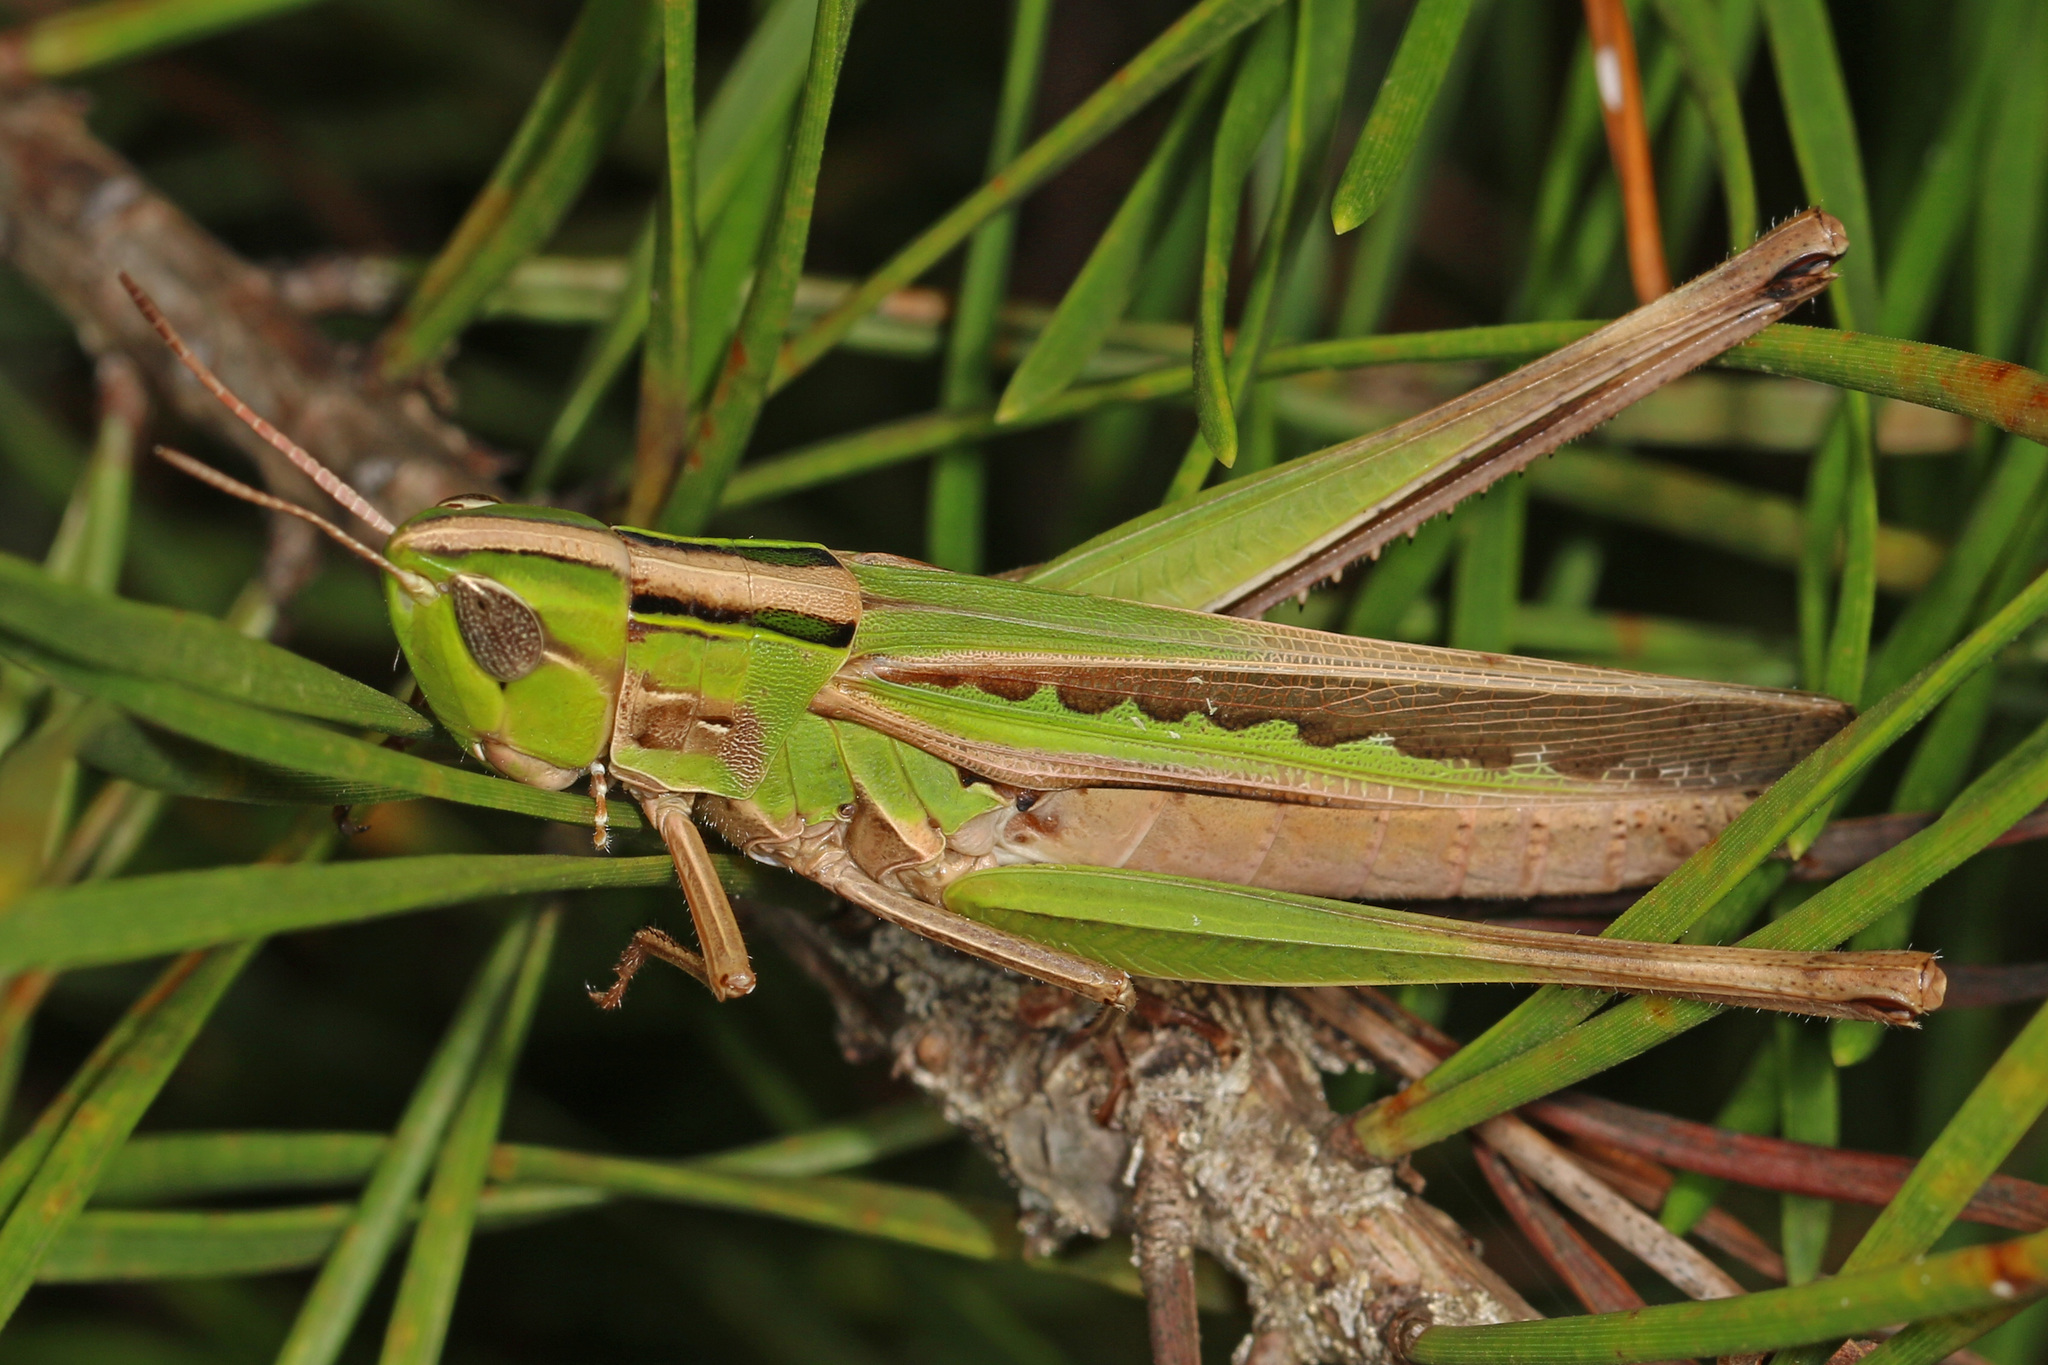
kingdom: Animalia
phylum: Arthropoda
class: Insecta
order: Orthoptera
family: Acrididae
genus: Syrbula
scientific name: Syrbula admirabilis
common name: Handsome grasshopper
